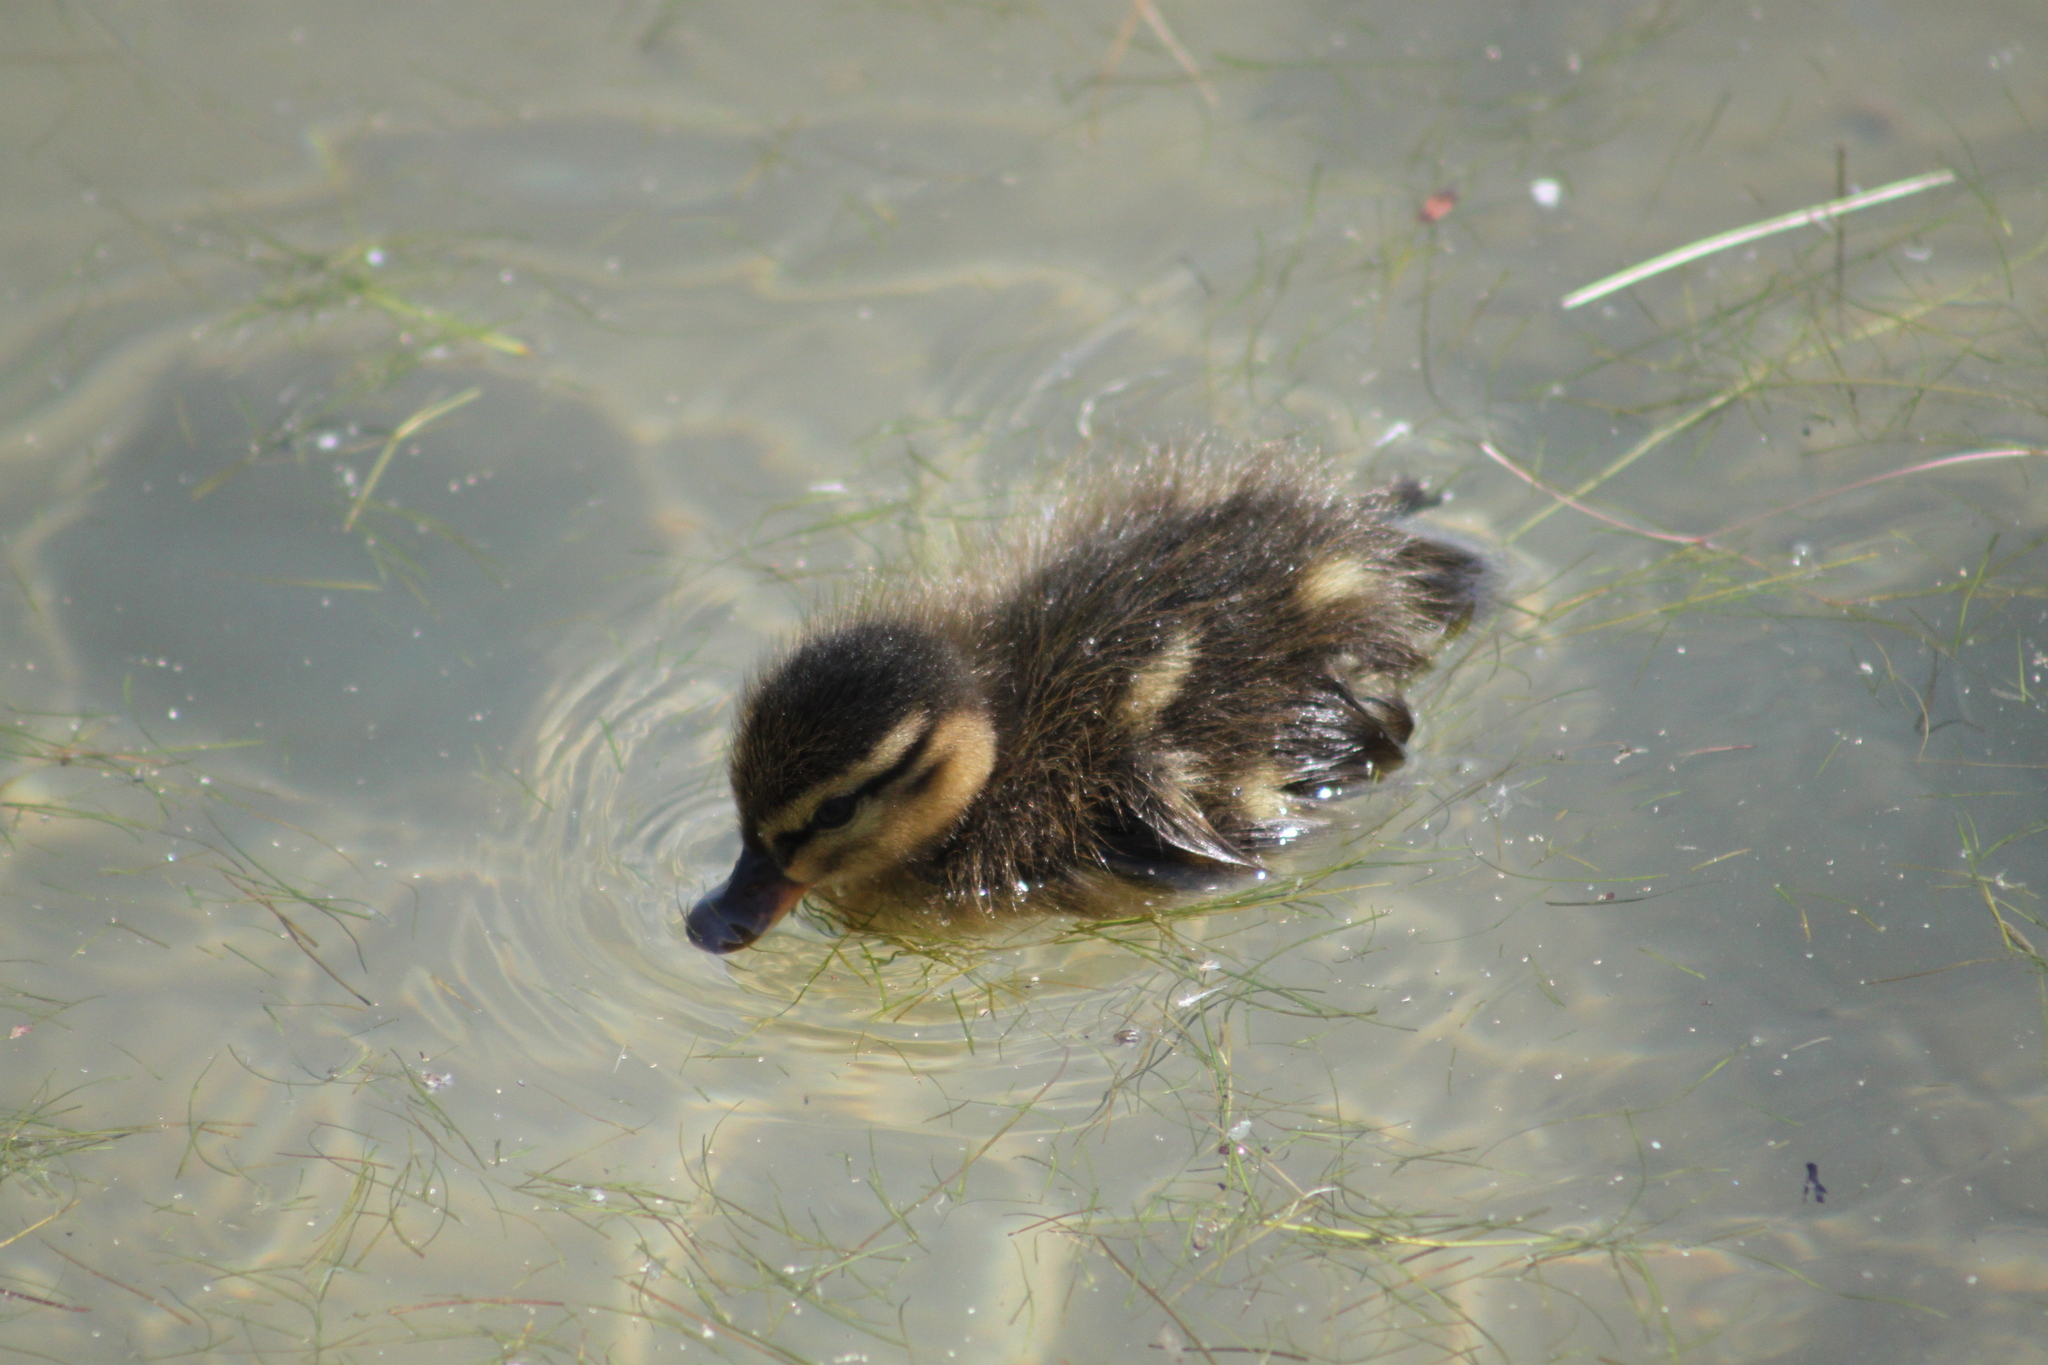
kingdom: Animalia
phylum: Chordata
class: Aves
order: Anseriformes
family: Anatidae
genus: Anas
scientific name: Anas platyrhynchos
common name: Mallard
